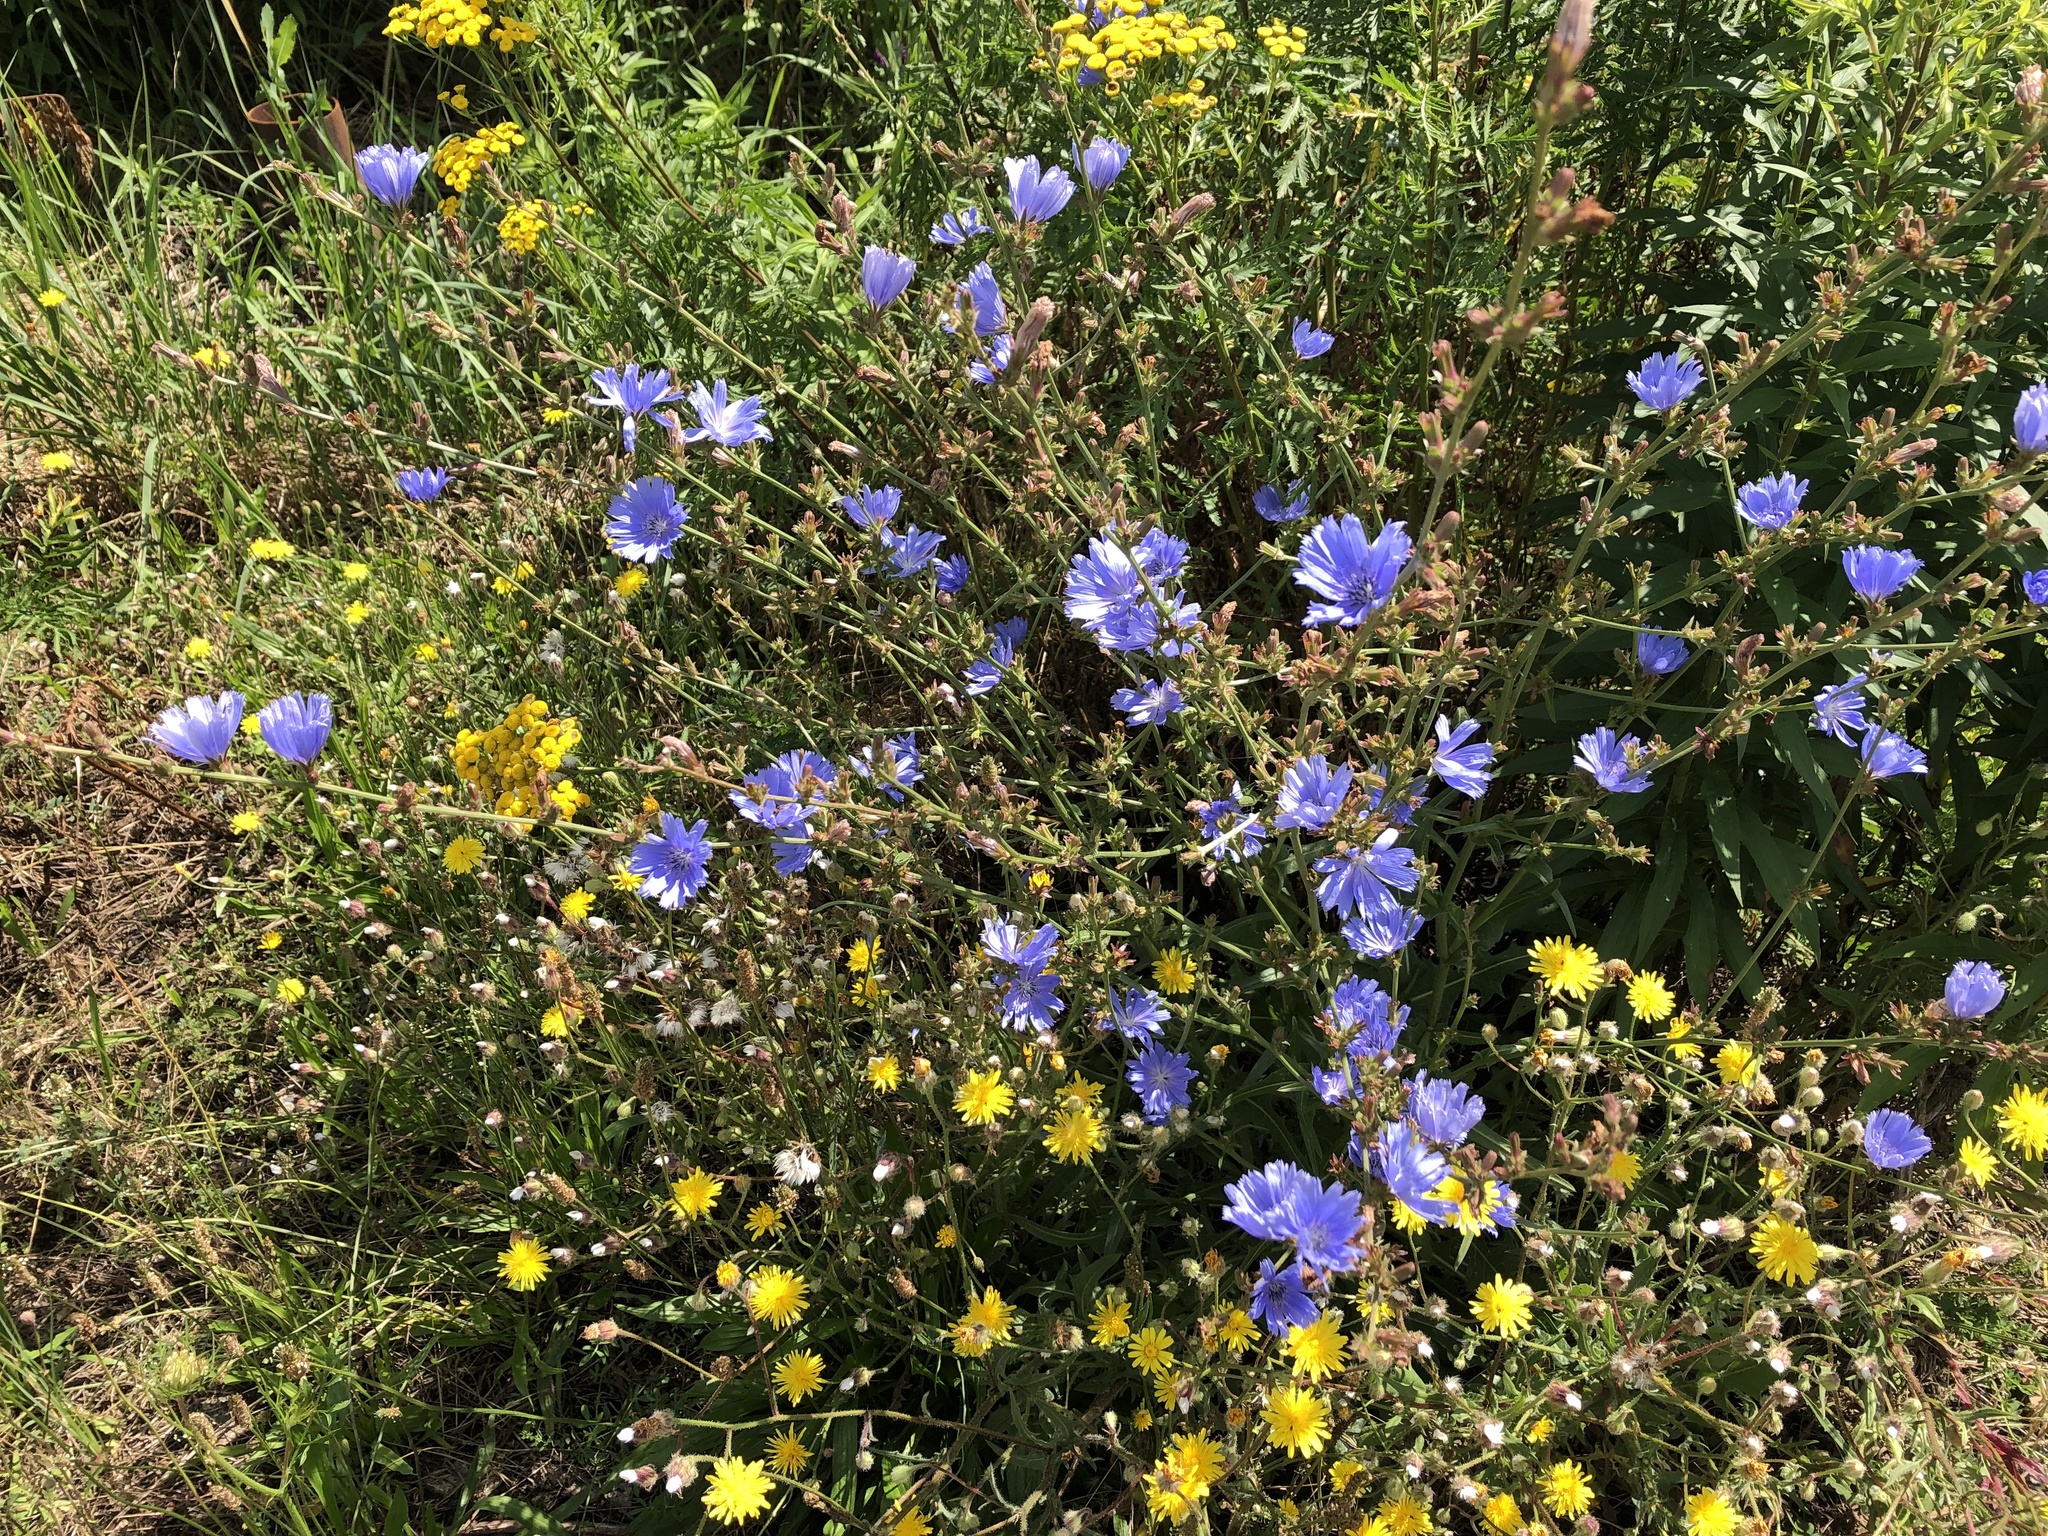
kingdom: Plantae
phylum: Tracheophyta
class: Magnoliopsida
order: Asterales
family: Asteraceae
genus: Cichorium
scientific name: Cichorium intybus
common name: Chicory
